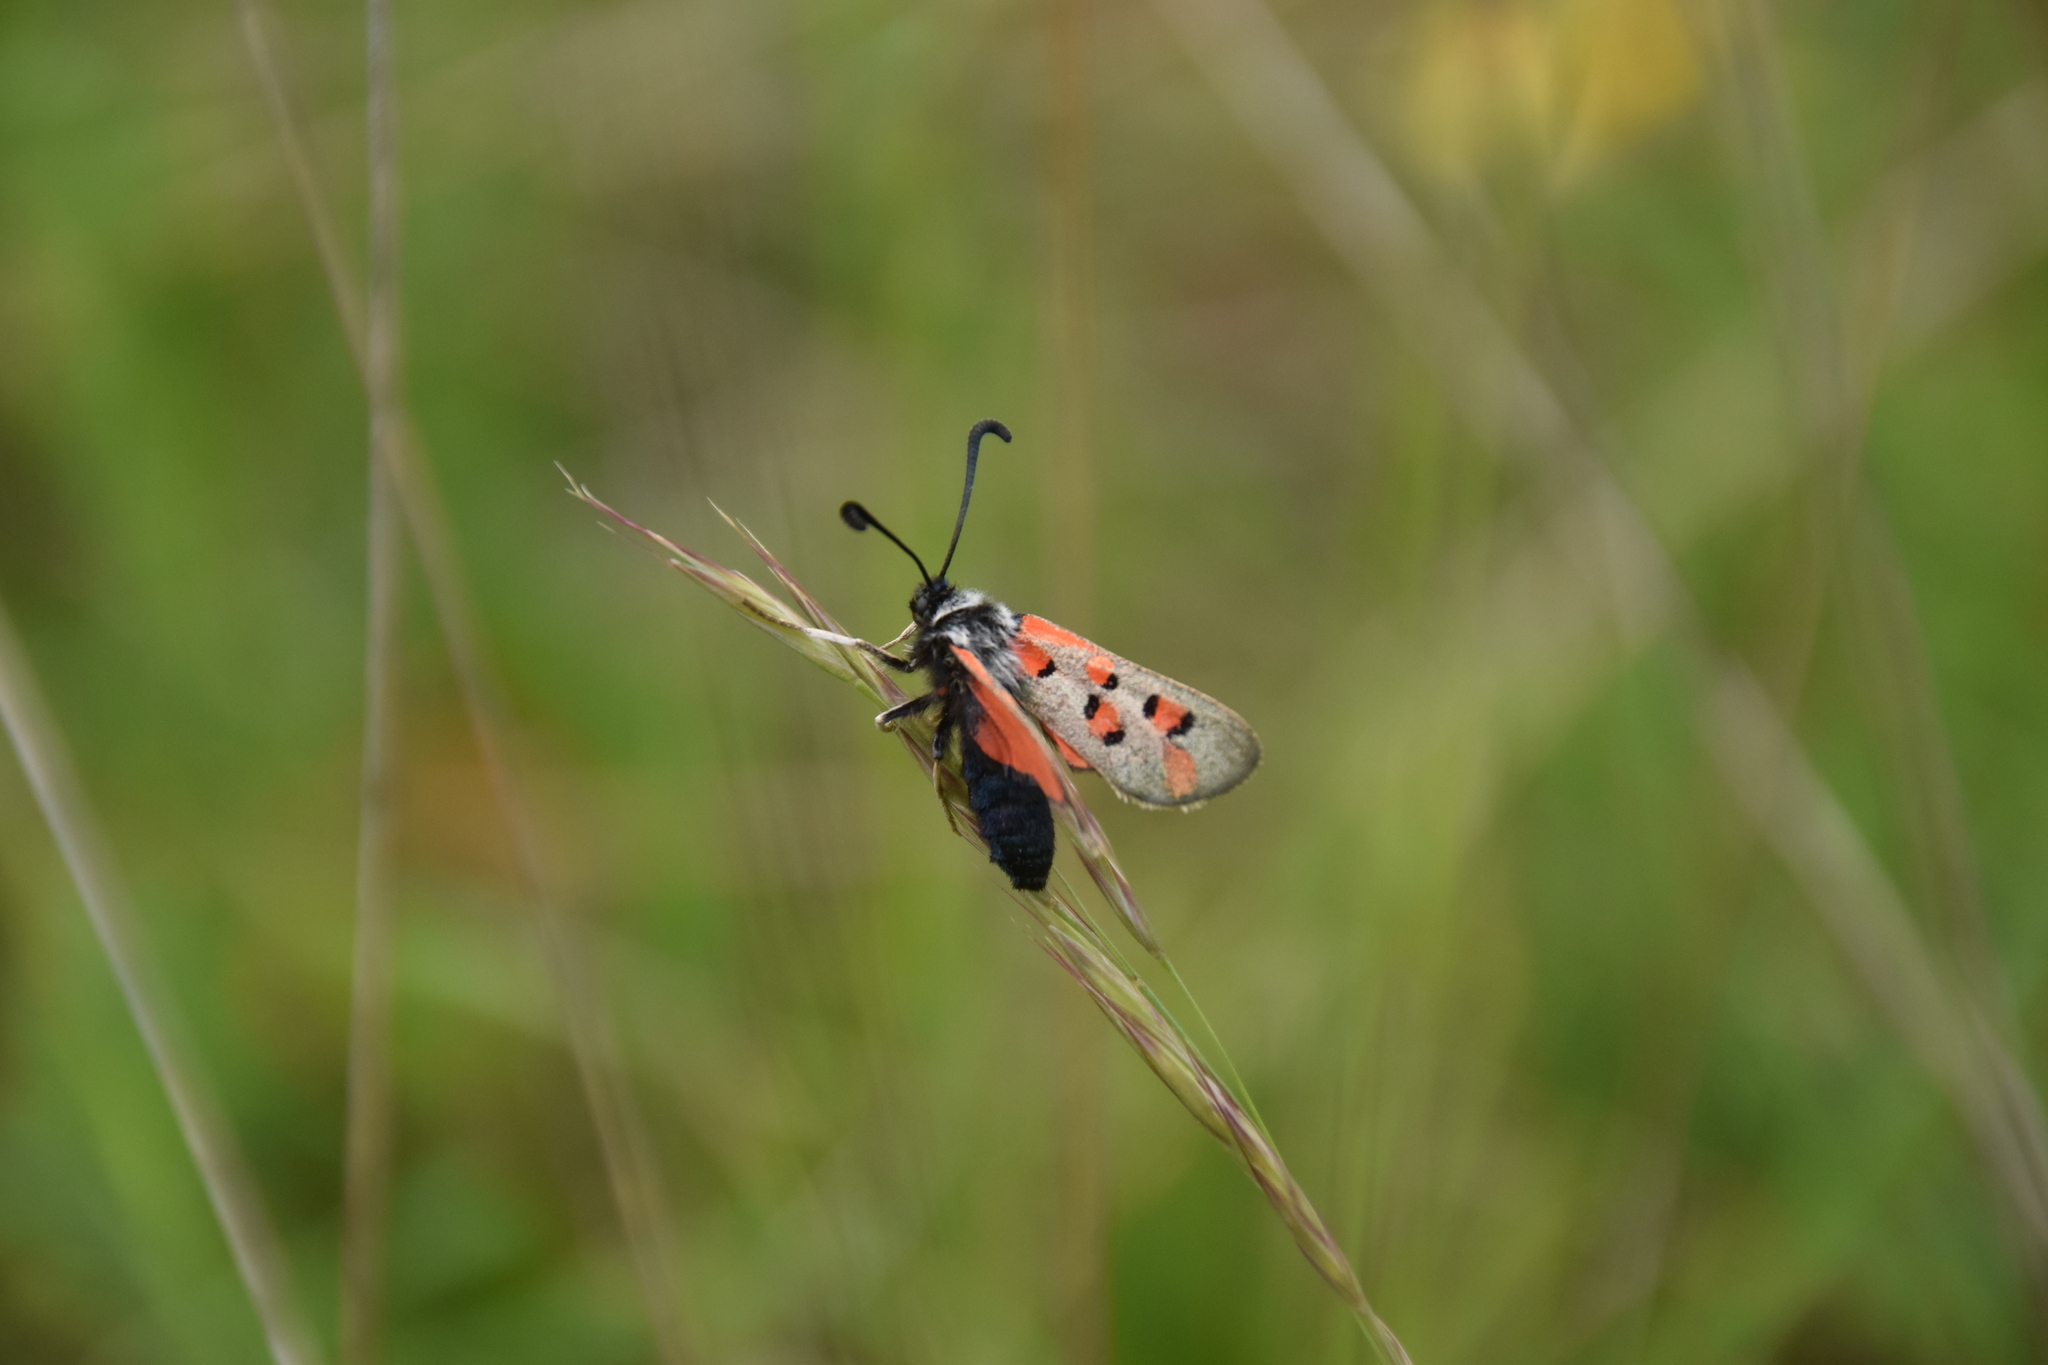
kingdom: Animalia
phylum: Arthropoda
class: Insecta
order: Lepidoptera
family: Zygaenidae
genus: Zygaena
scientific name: Zygaena rhadamanthus
